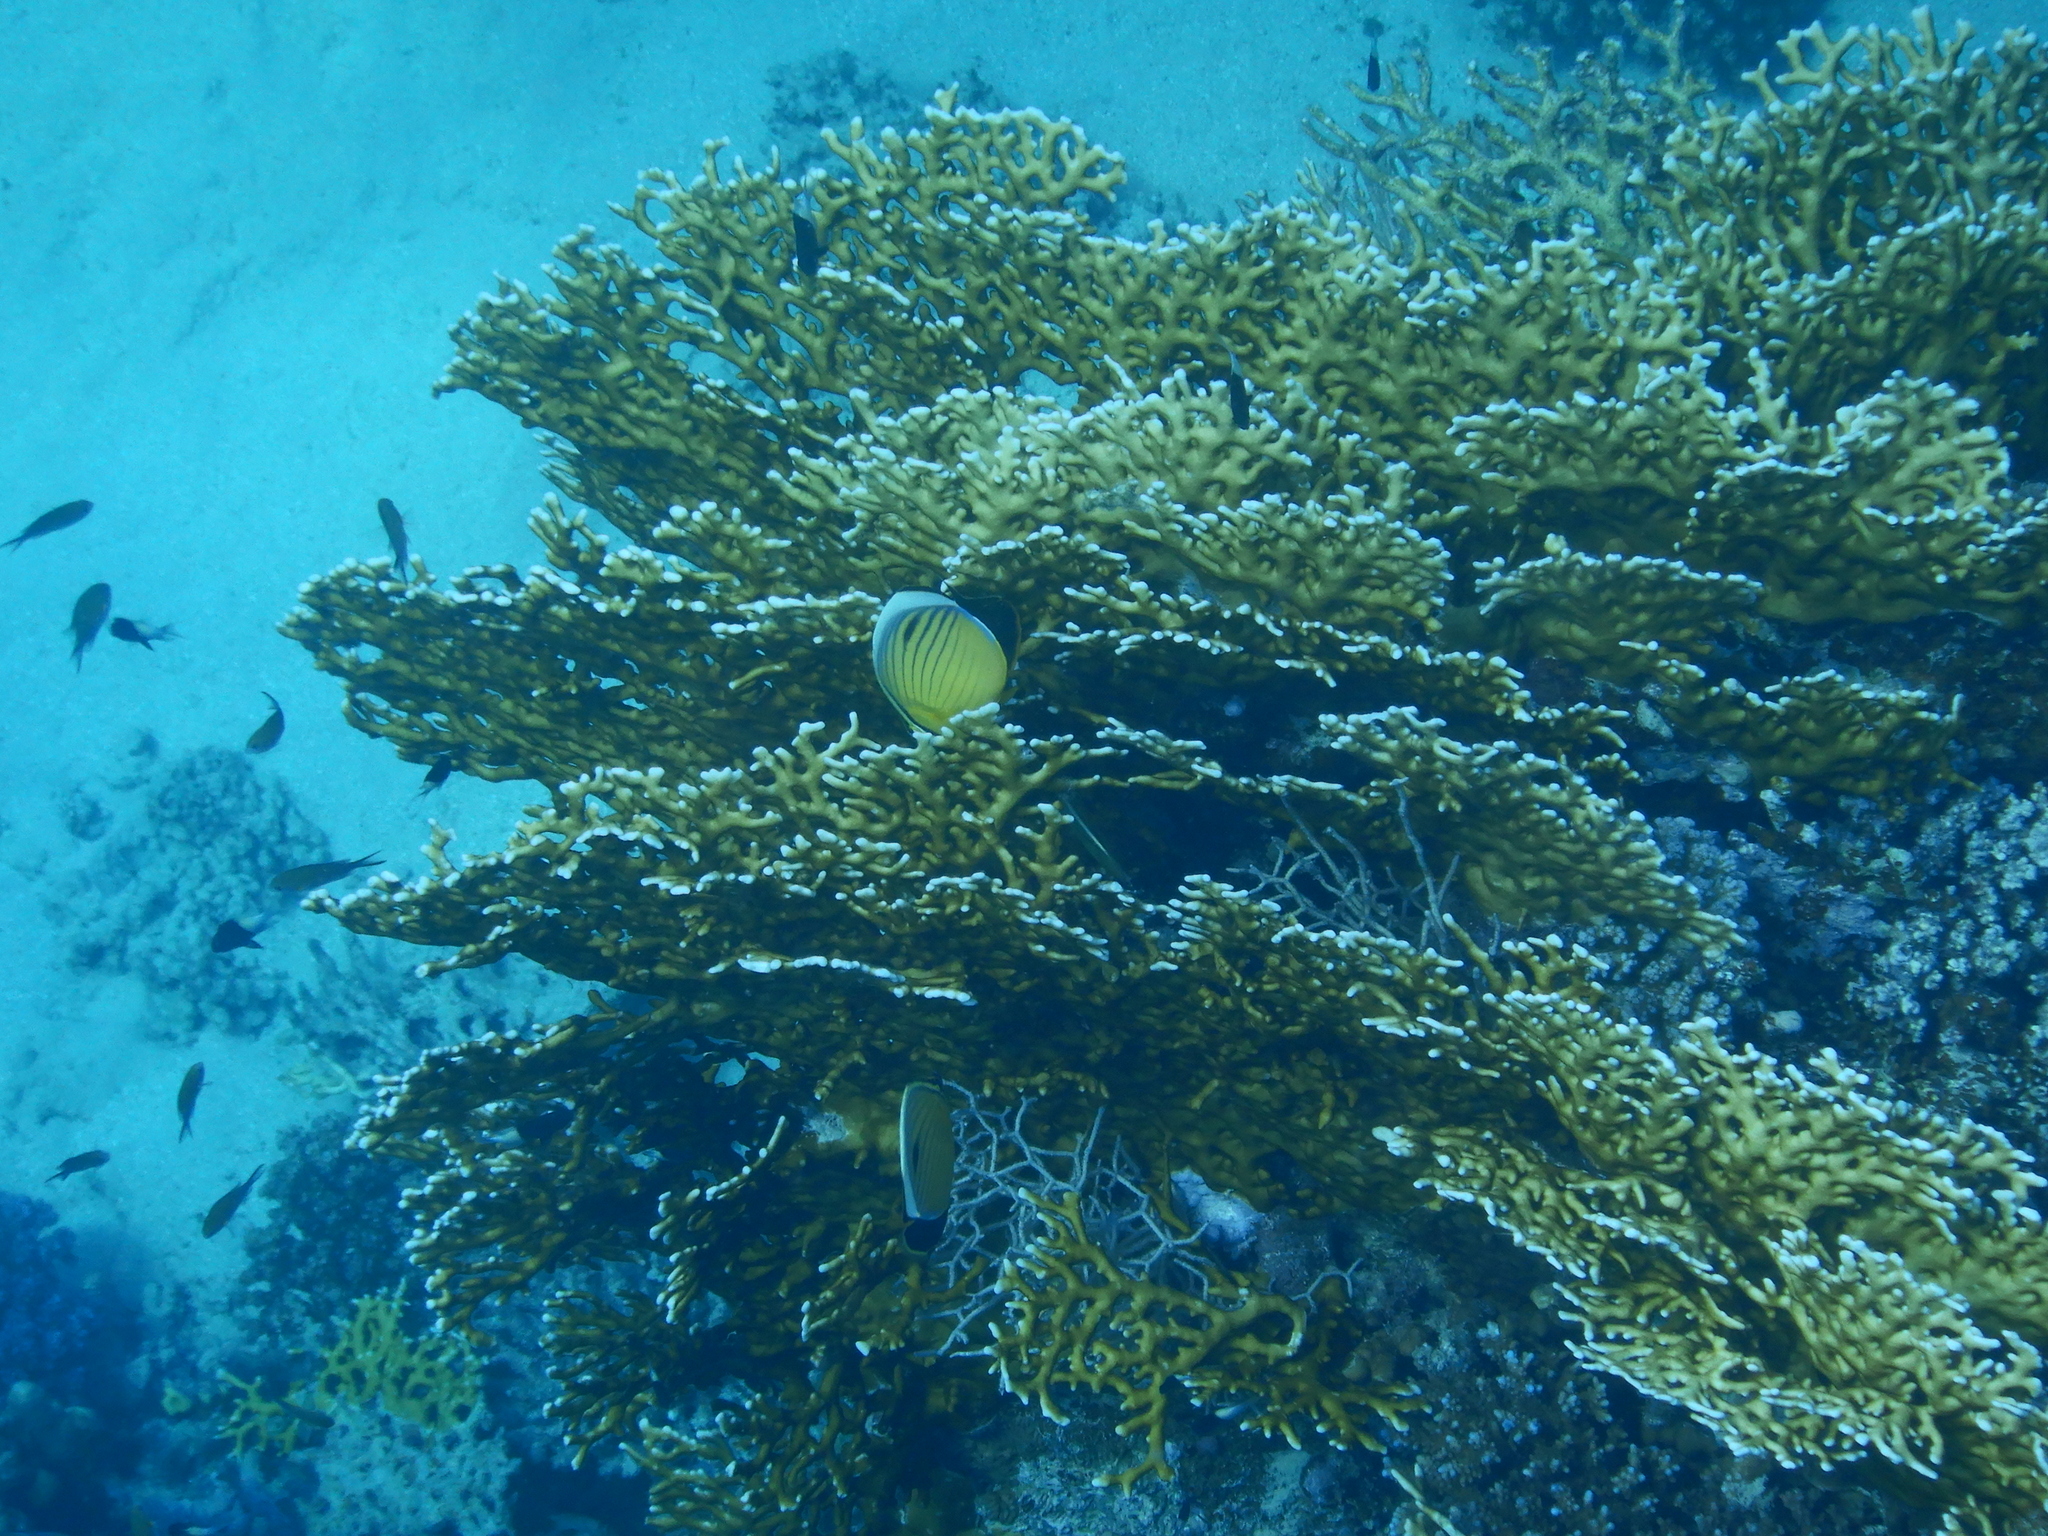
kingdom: Animalia
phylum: Chordata
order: Perciformes
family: Chaetodontidae
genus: Chaetodon
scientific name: Chaetodon austriacus
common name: Exquisite butterflyfish
